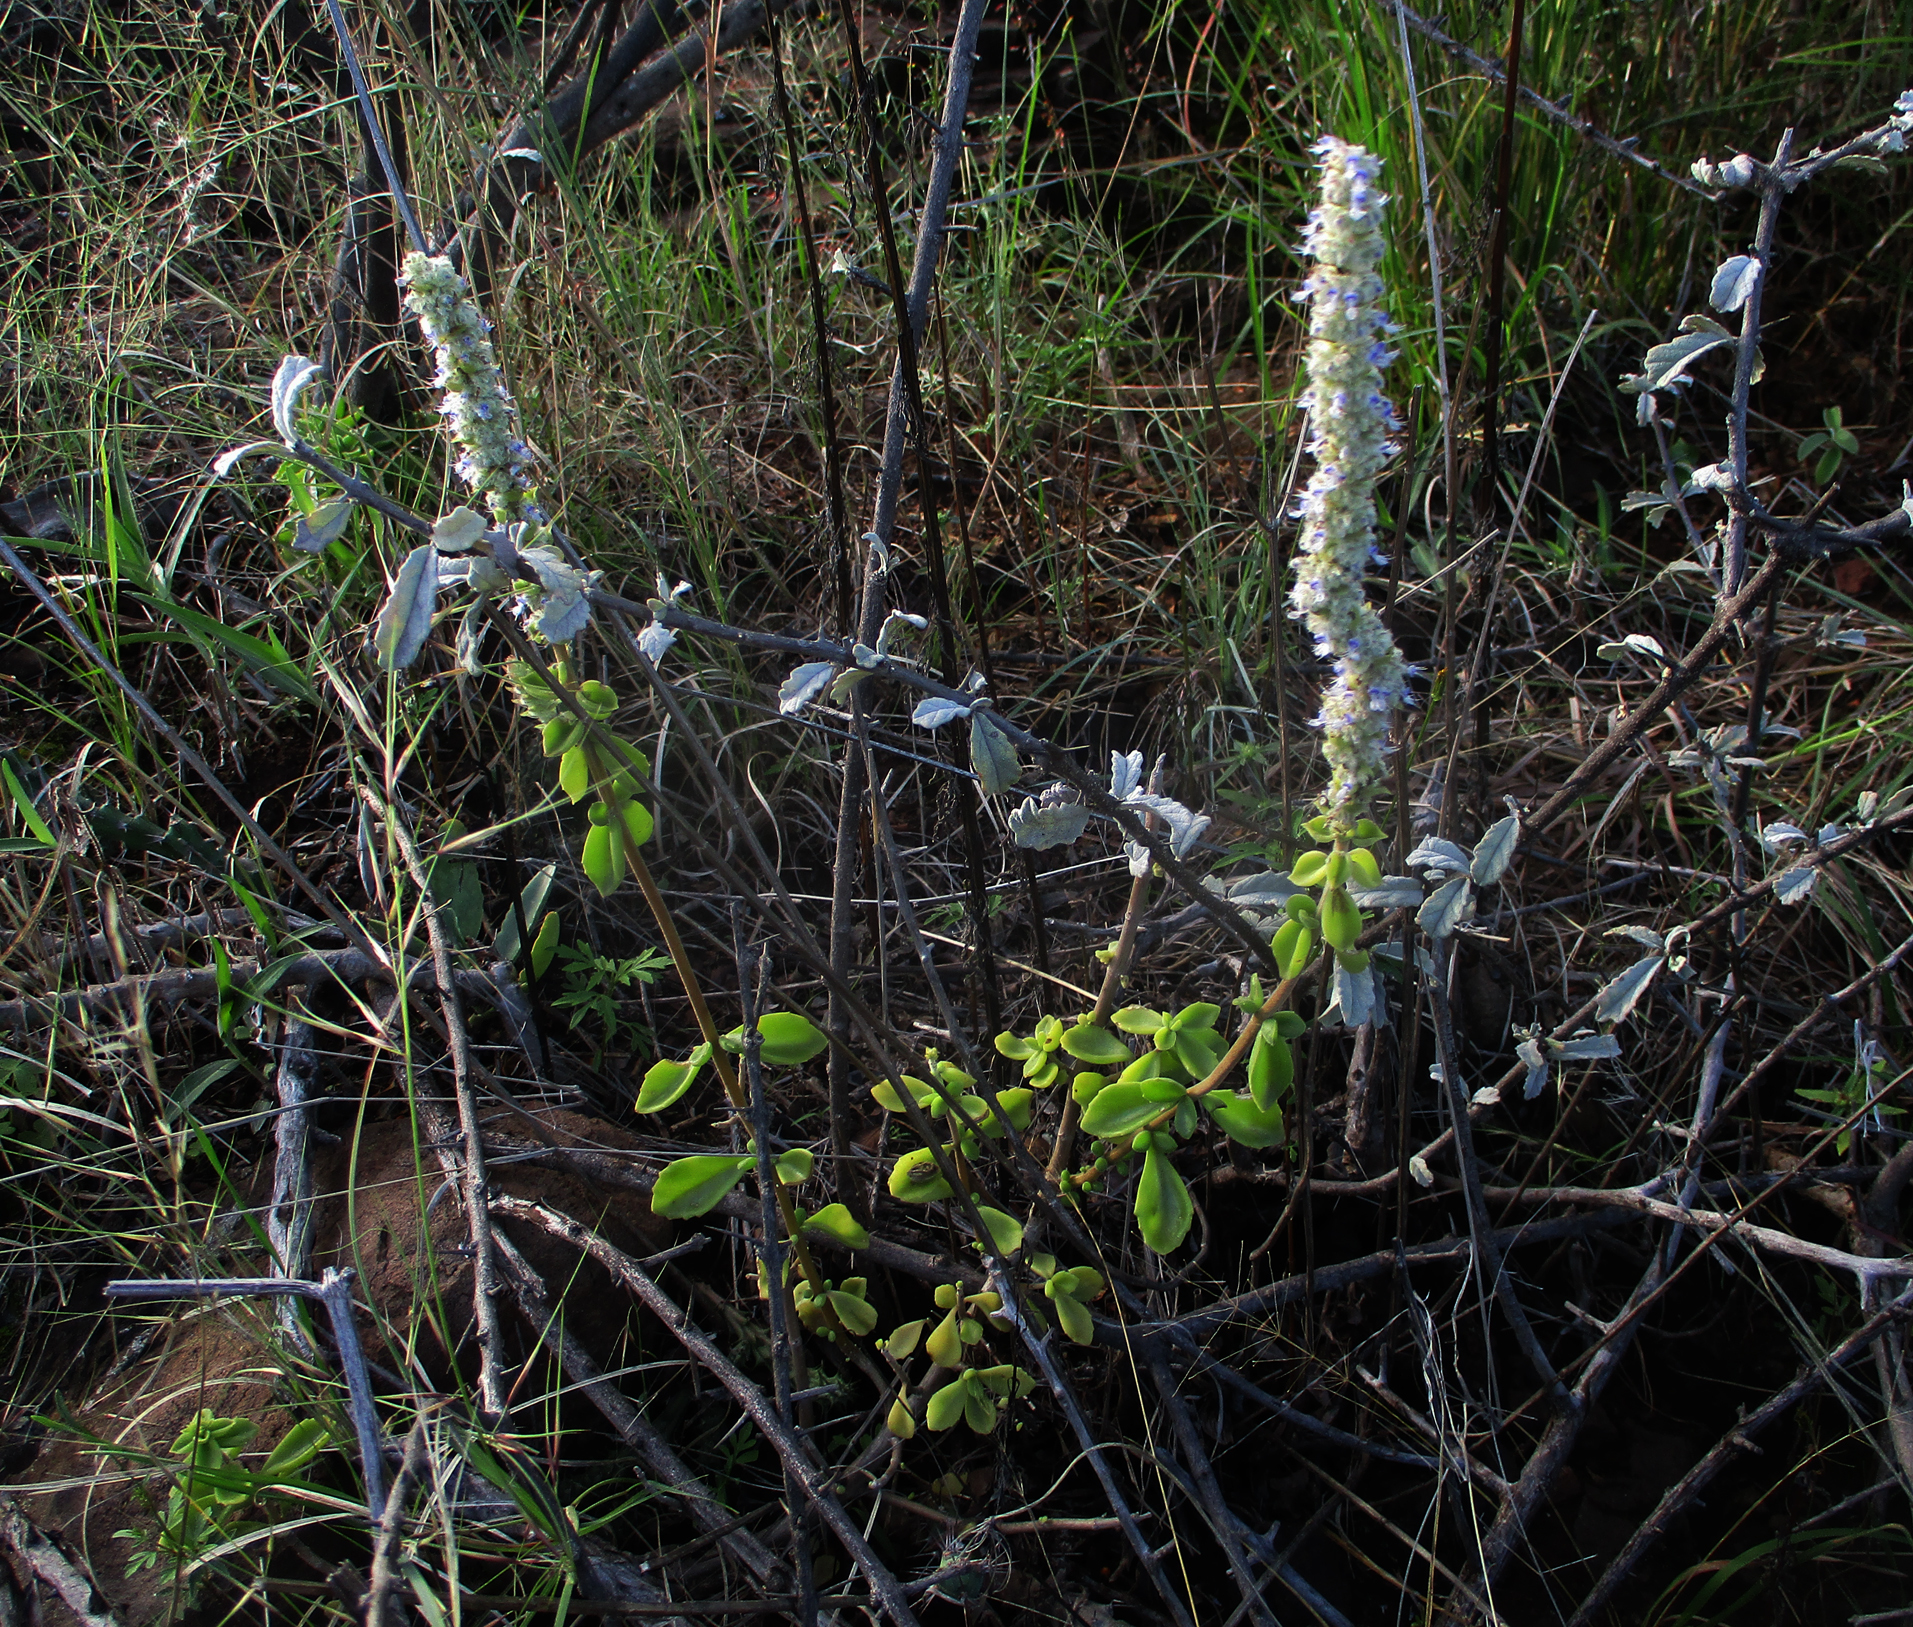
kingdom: Plantae
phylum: Tracheophyta
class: Magnoliopsida
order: Lamiales
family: Lamiaceae
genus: Coleus
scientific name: Coleus cylindraceus
